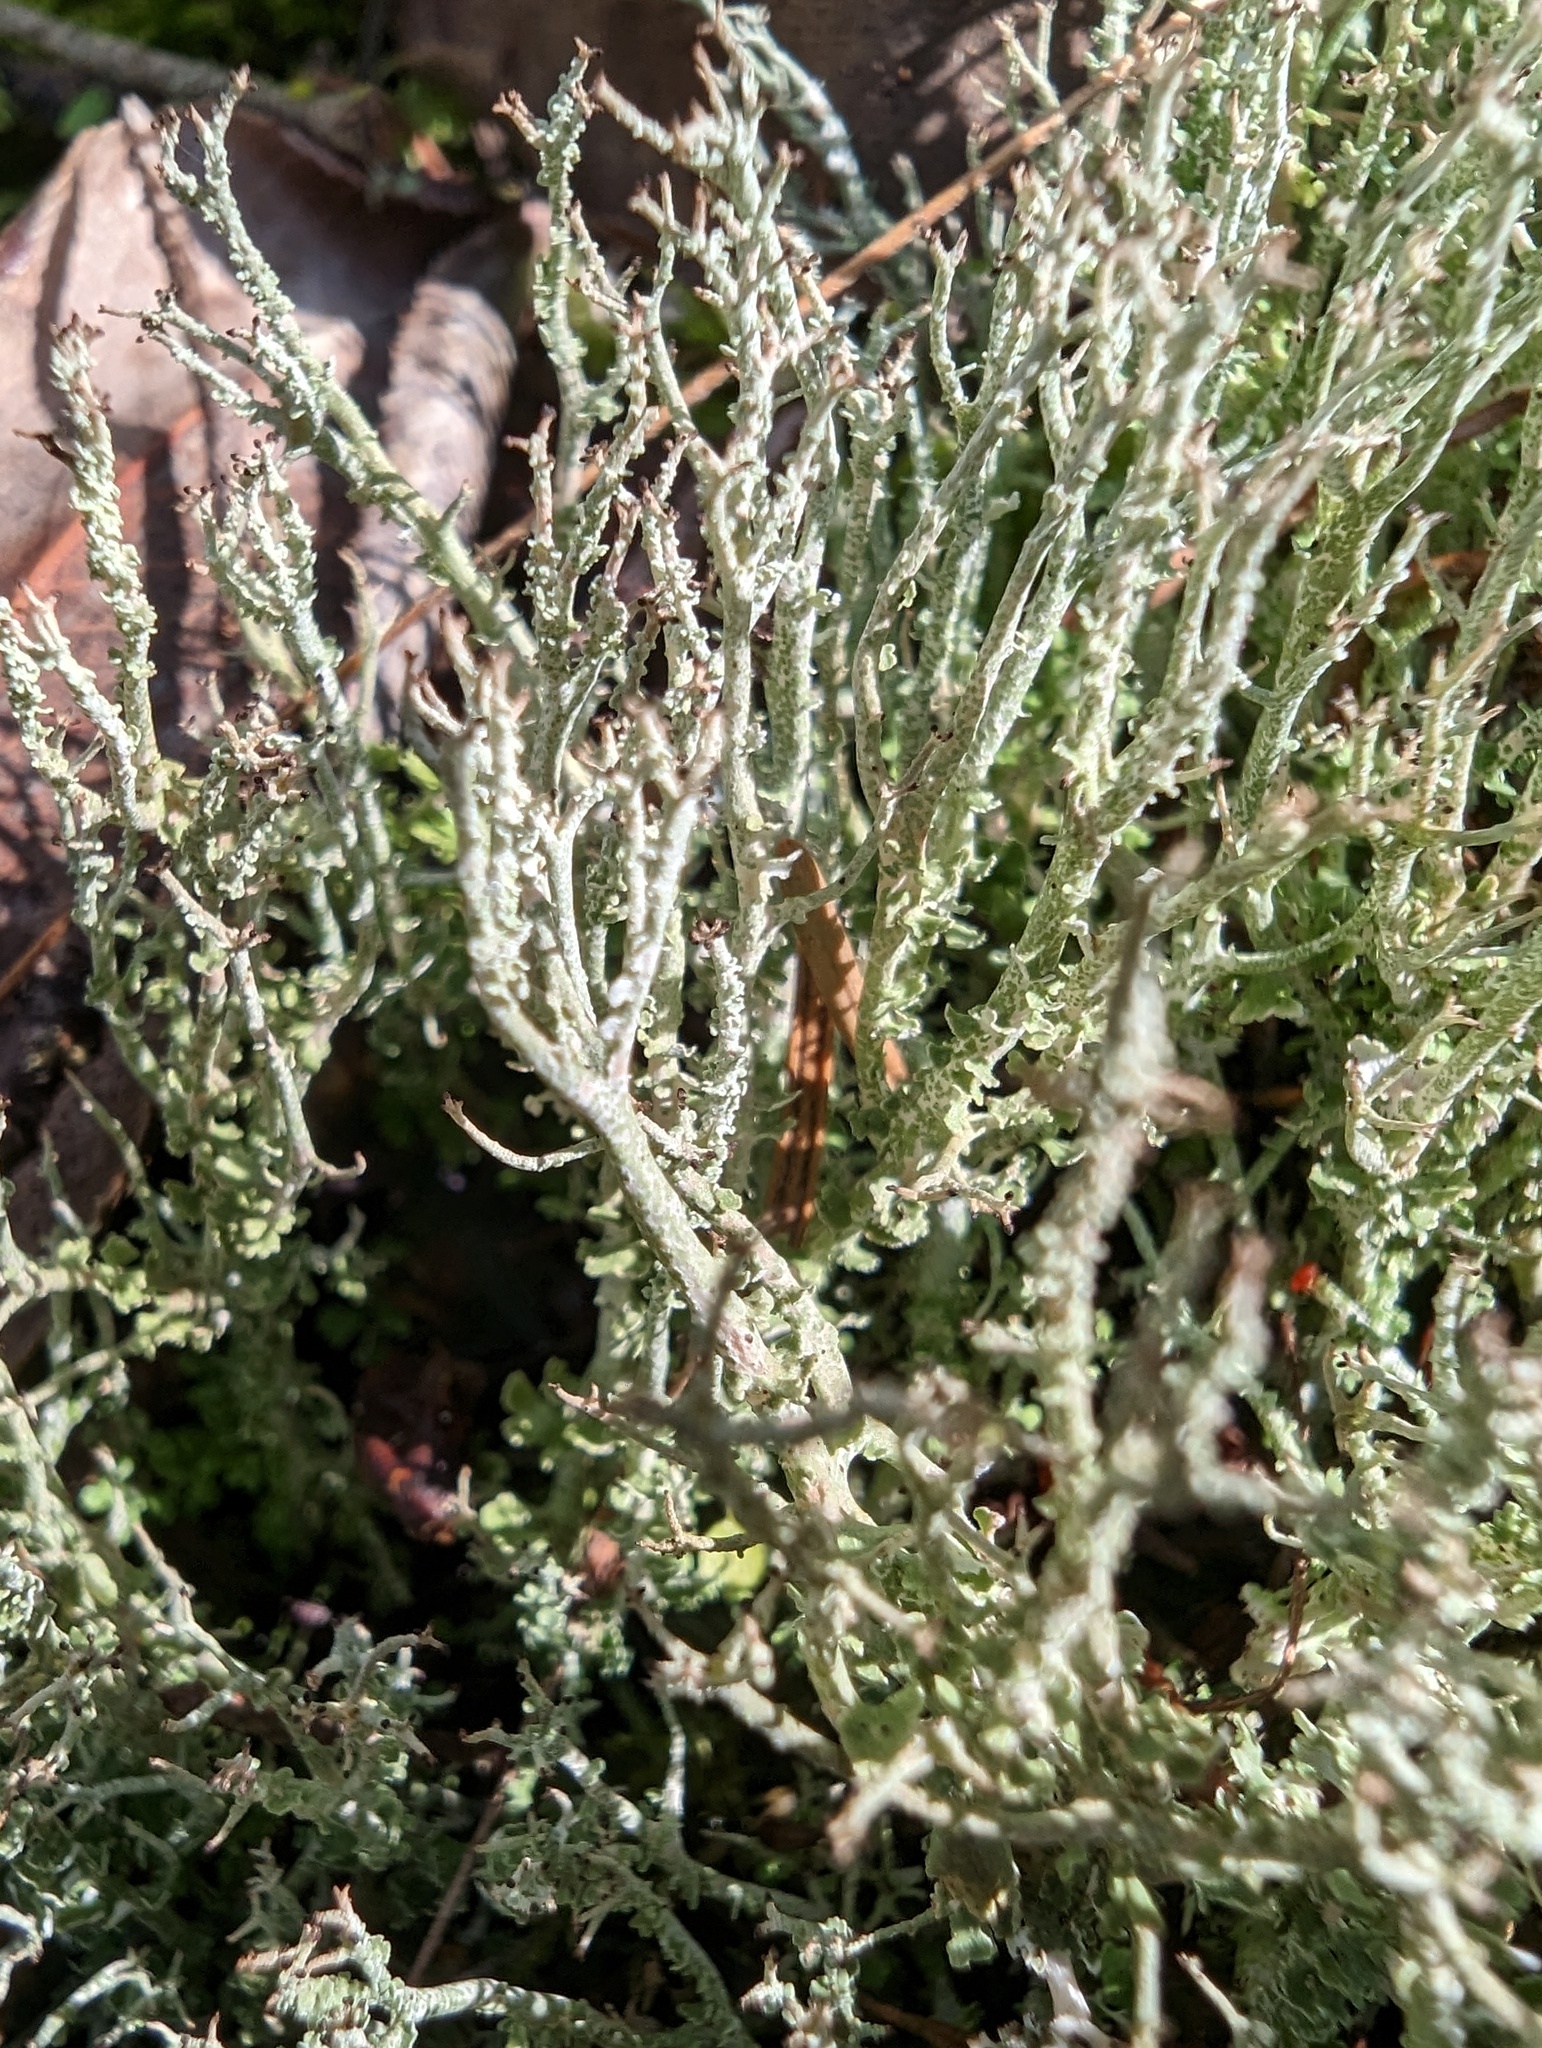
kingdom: Fungi
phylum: Ascomycota
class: Lecanoromycetes
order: Lecanorales
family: Cladoniaceae
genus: Cladonia
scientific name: Cladonia furcata
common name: Many-forked cladonia
